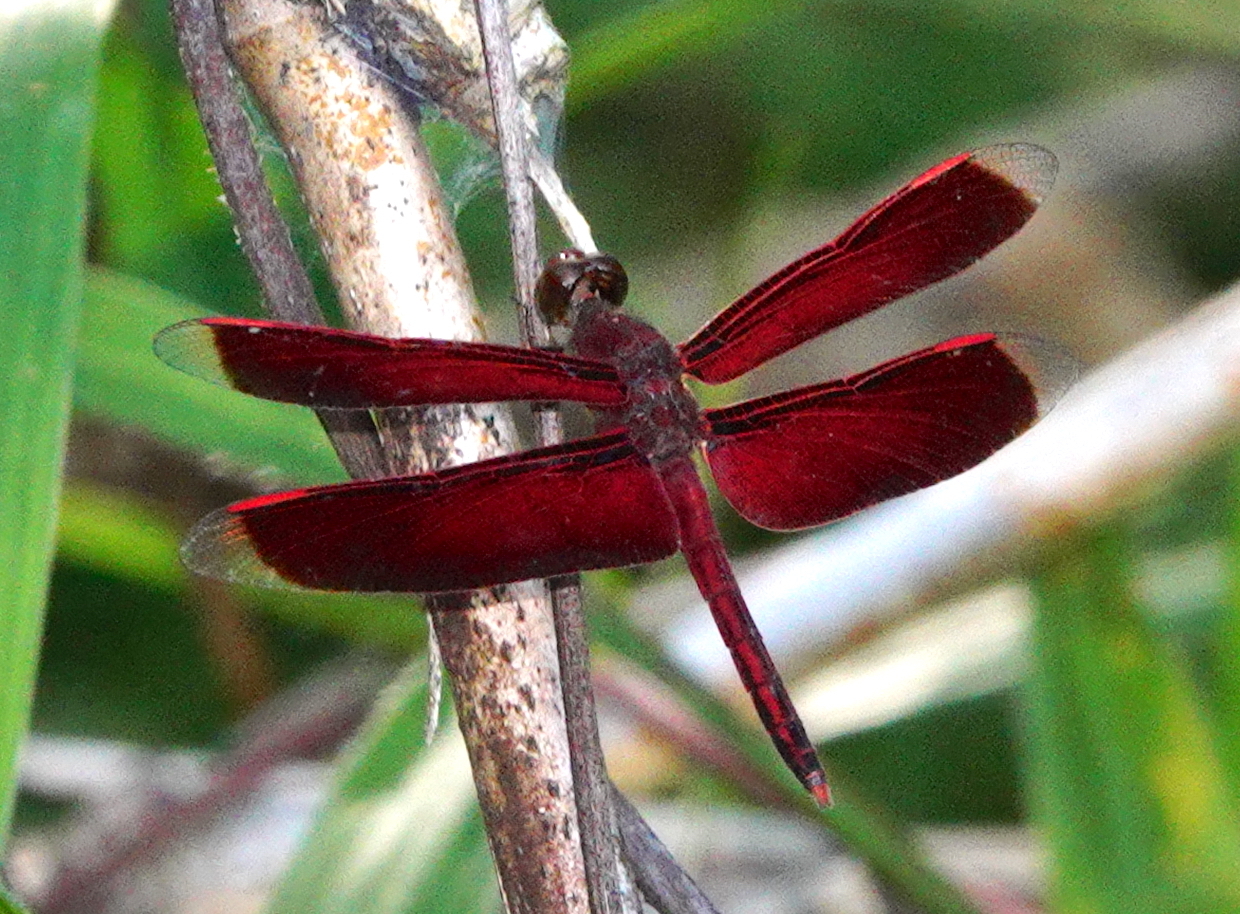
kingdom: Animalia
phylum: Arthropoda
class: Insecta
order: Odonata
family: Libellulidae
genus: Neurothemis
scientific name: Neurothemis manadensis
